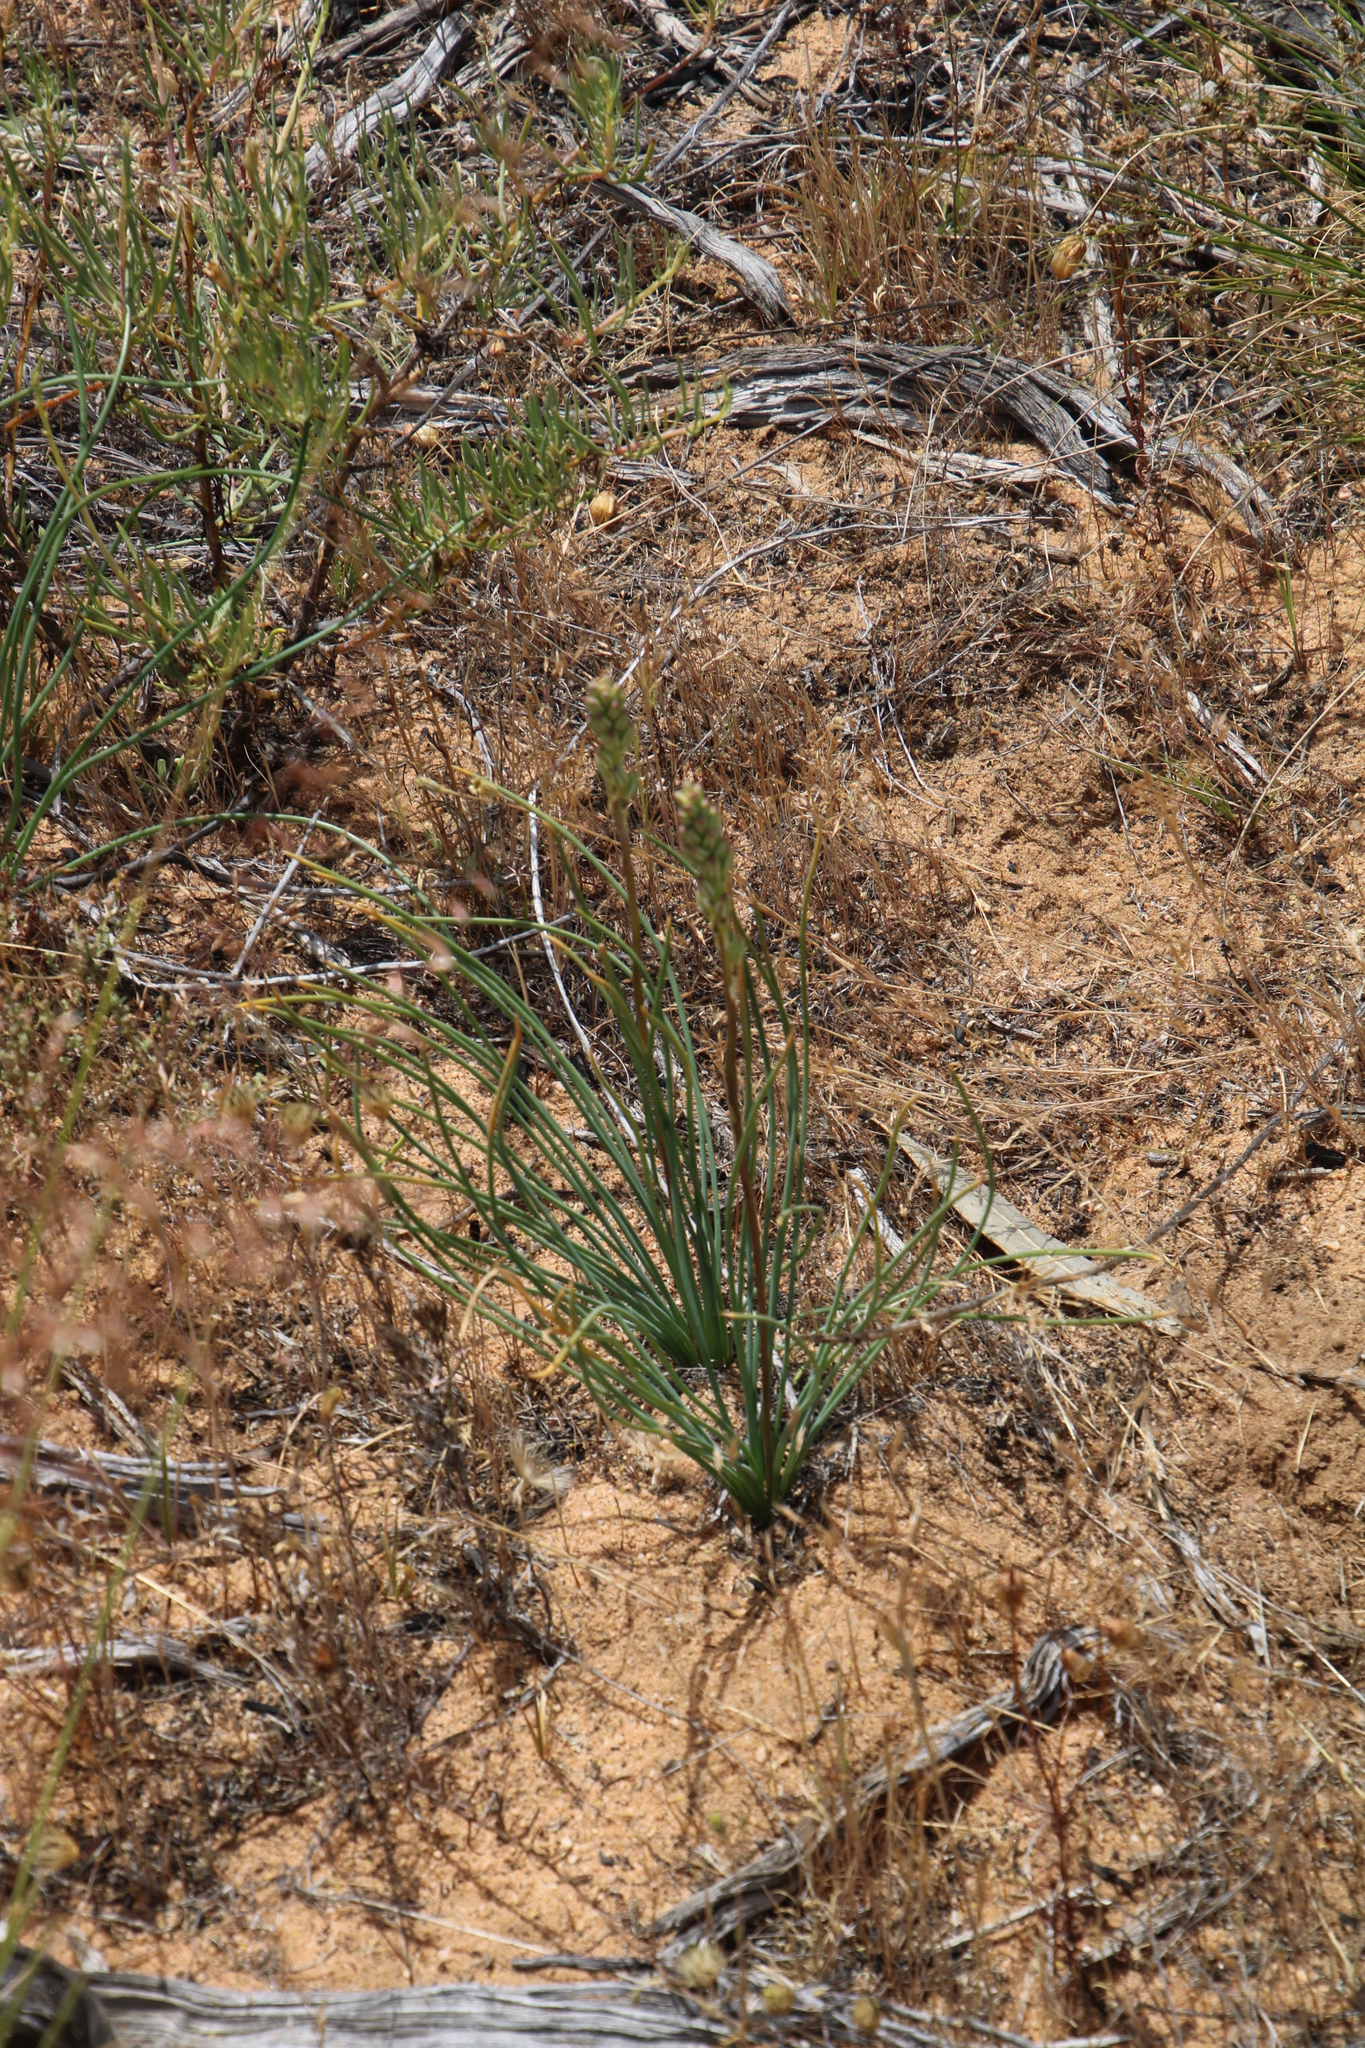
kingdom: Plantae
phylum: Tracheophyta
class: Liliopsida
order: Asparagales
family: Asparagaceae
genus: Drimia
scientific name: Drimia fragrans
